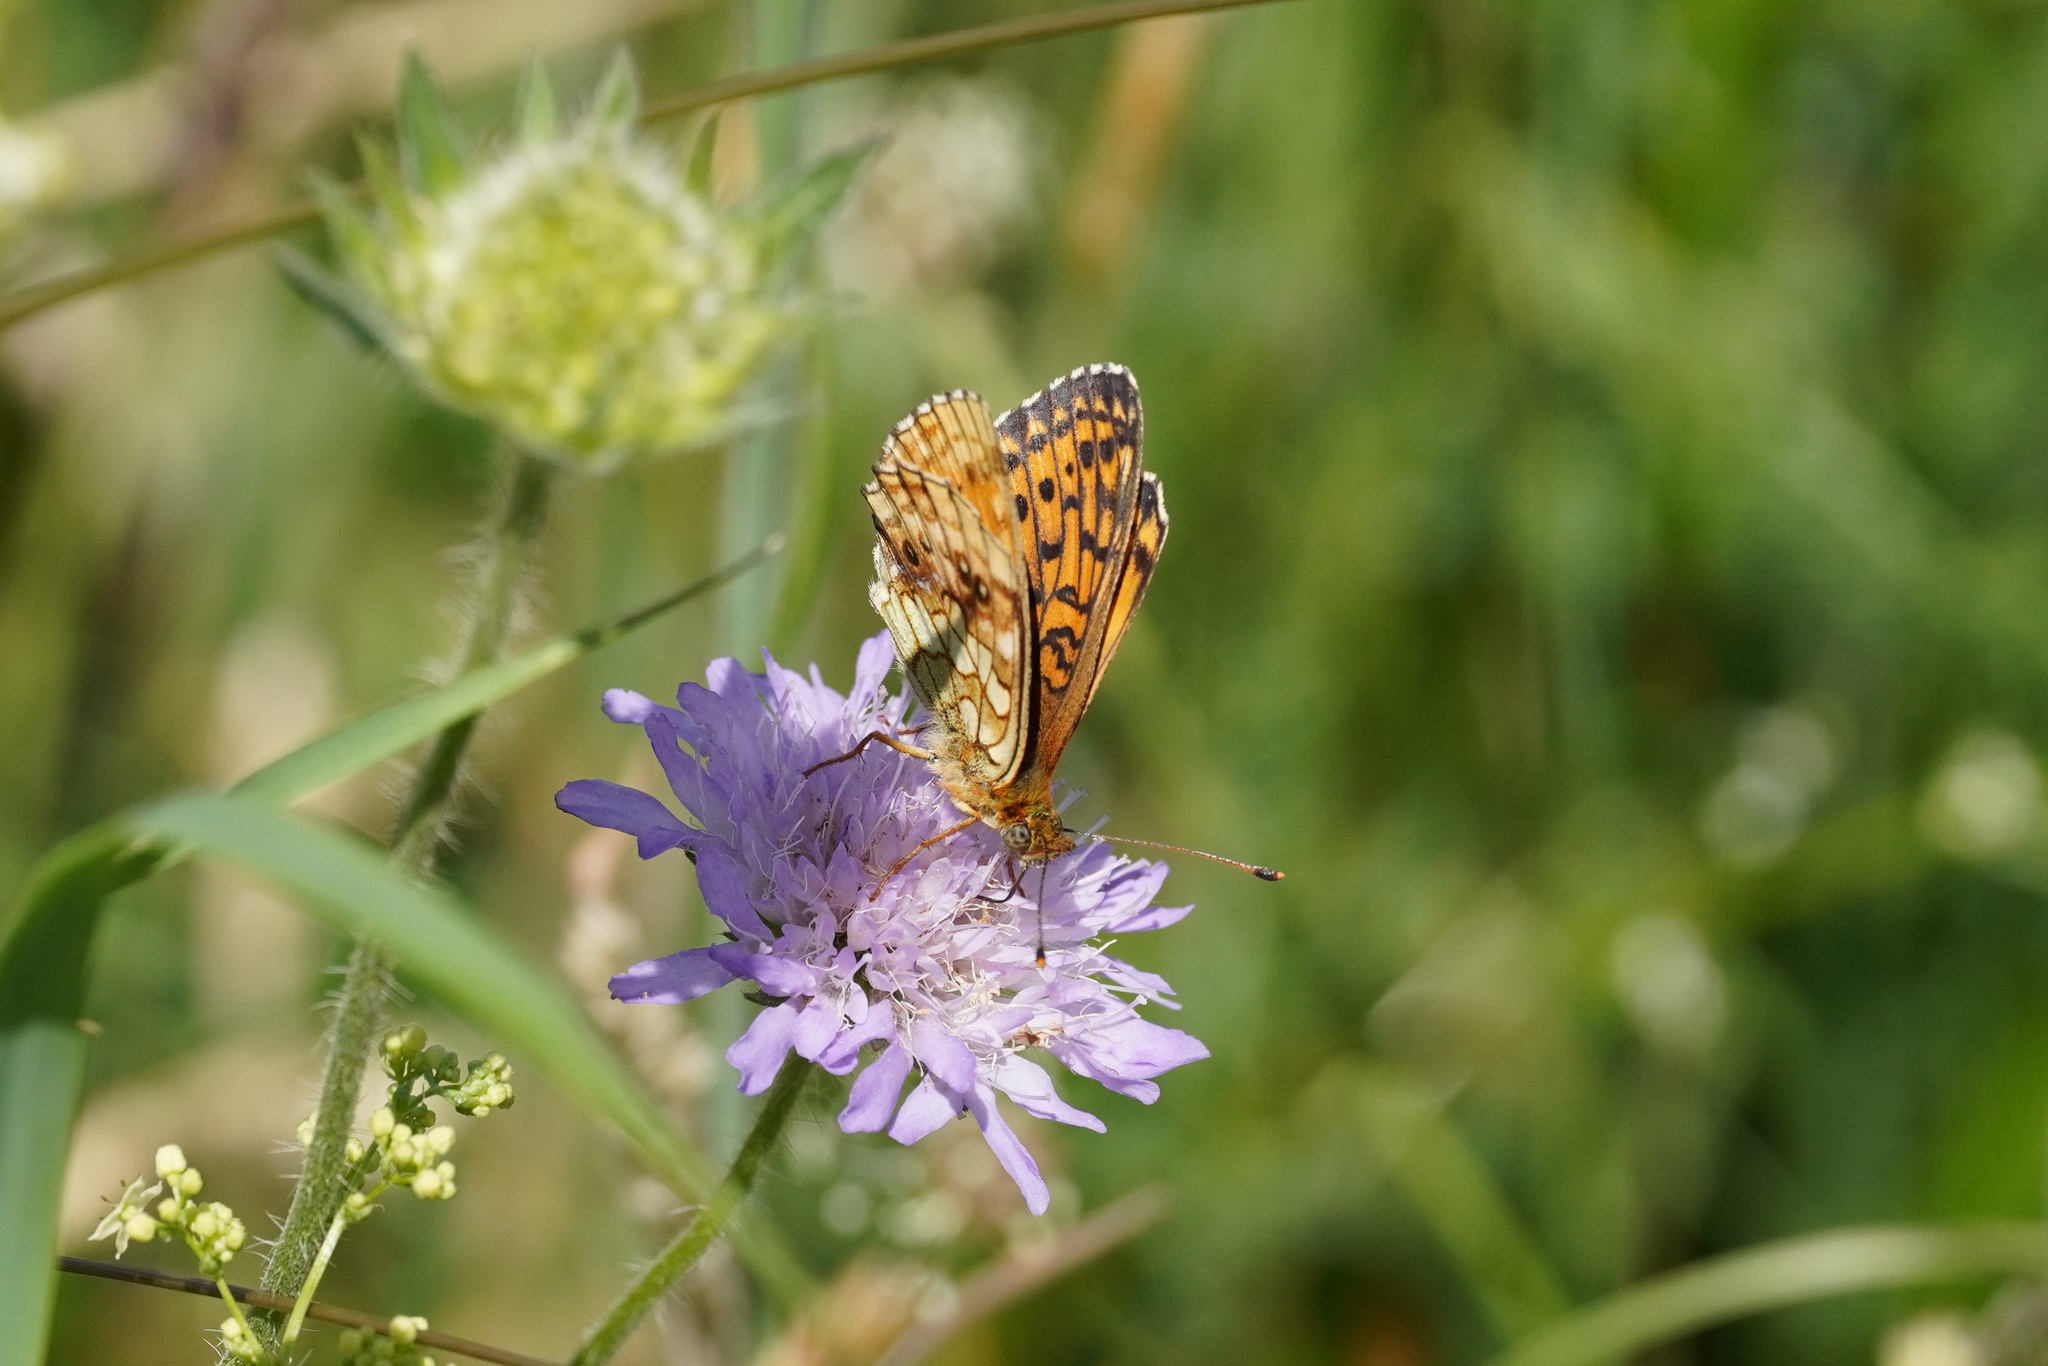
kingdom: Animalia
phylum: Arthropoda
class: Insecta
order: Lepidoptera
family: Nymphalidae
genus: Brenthis
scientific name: Brenthis ino
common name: Lesser marbled fritillary
